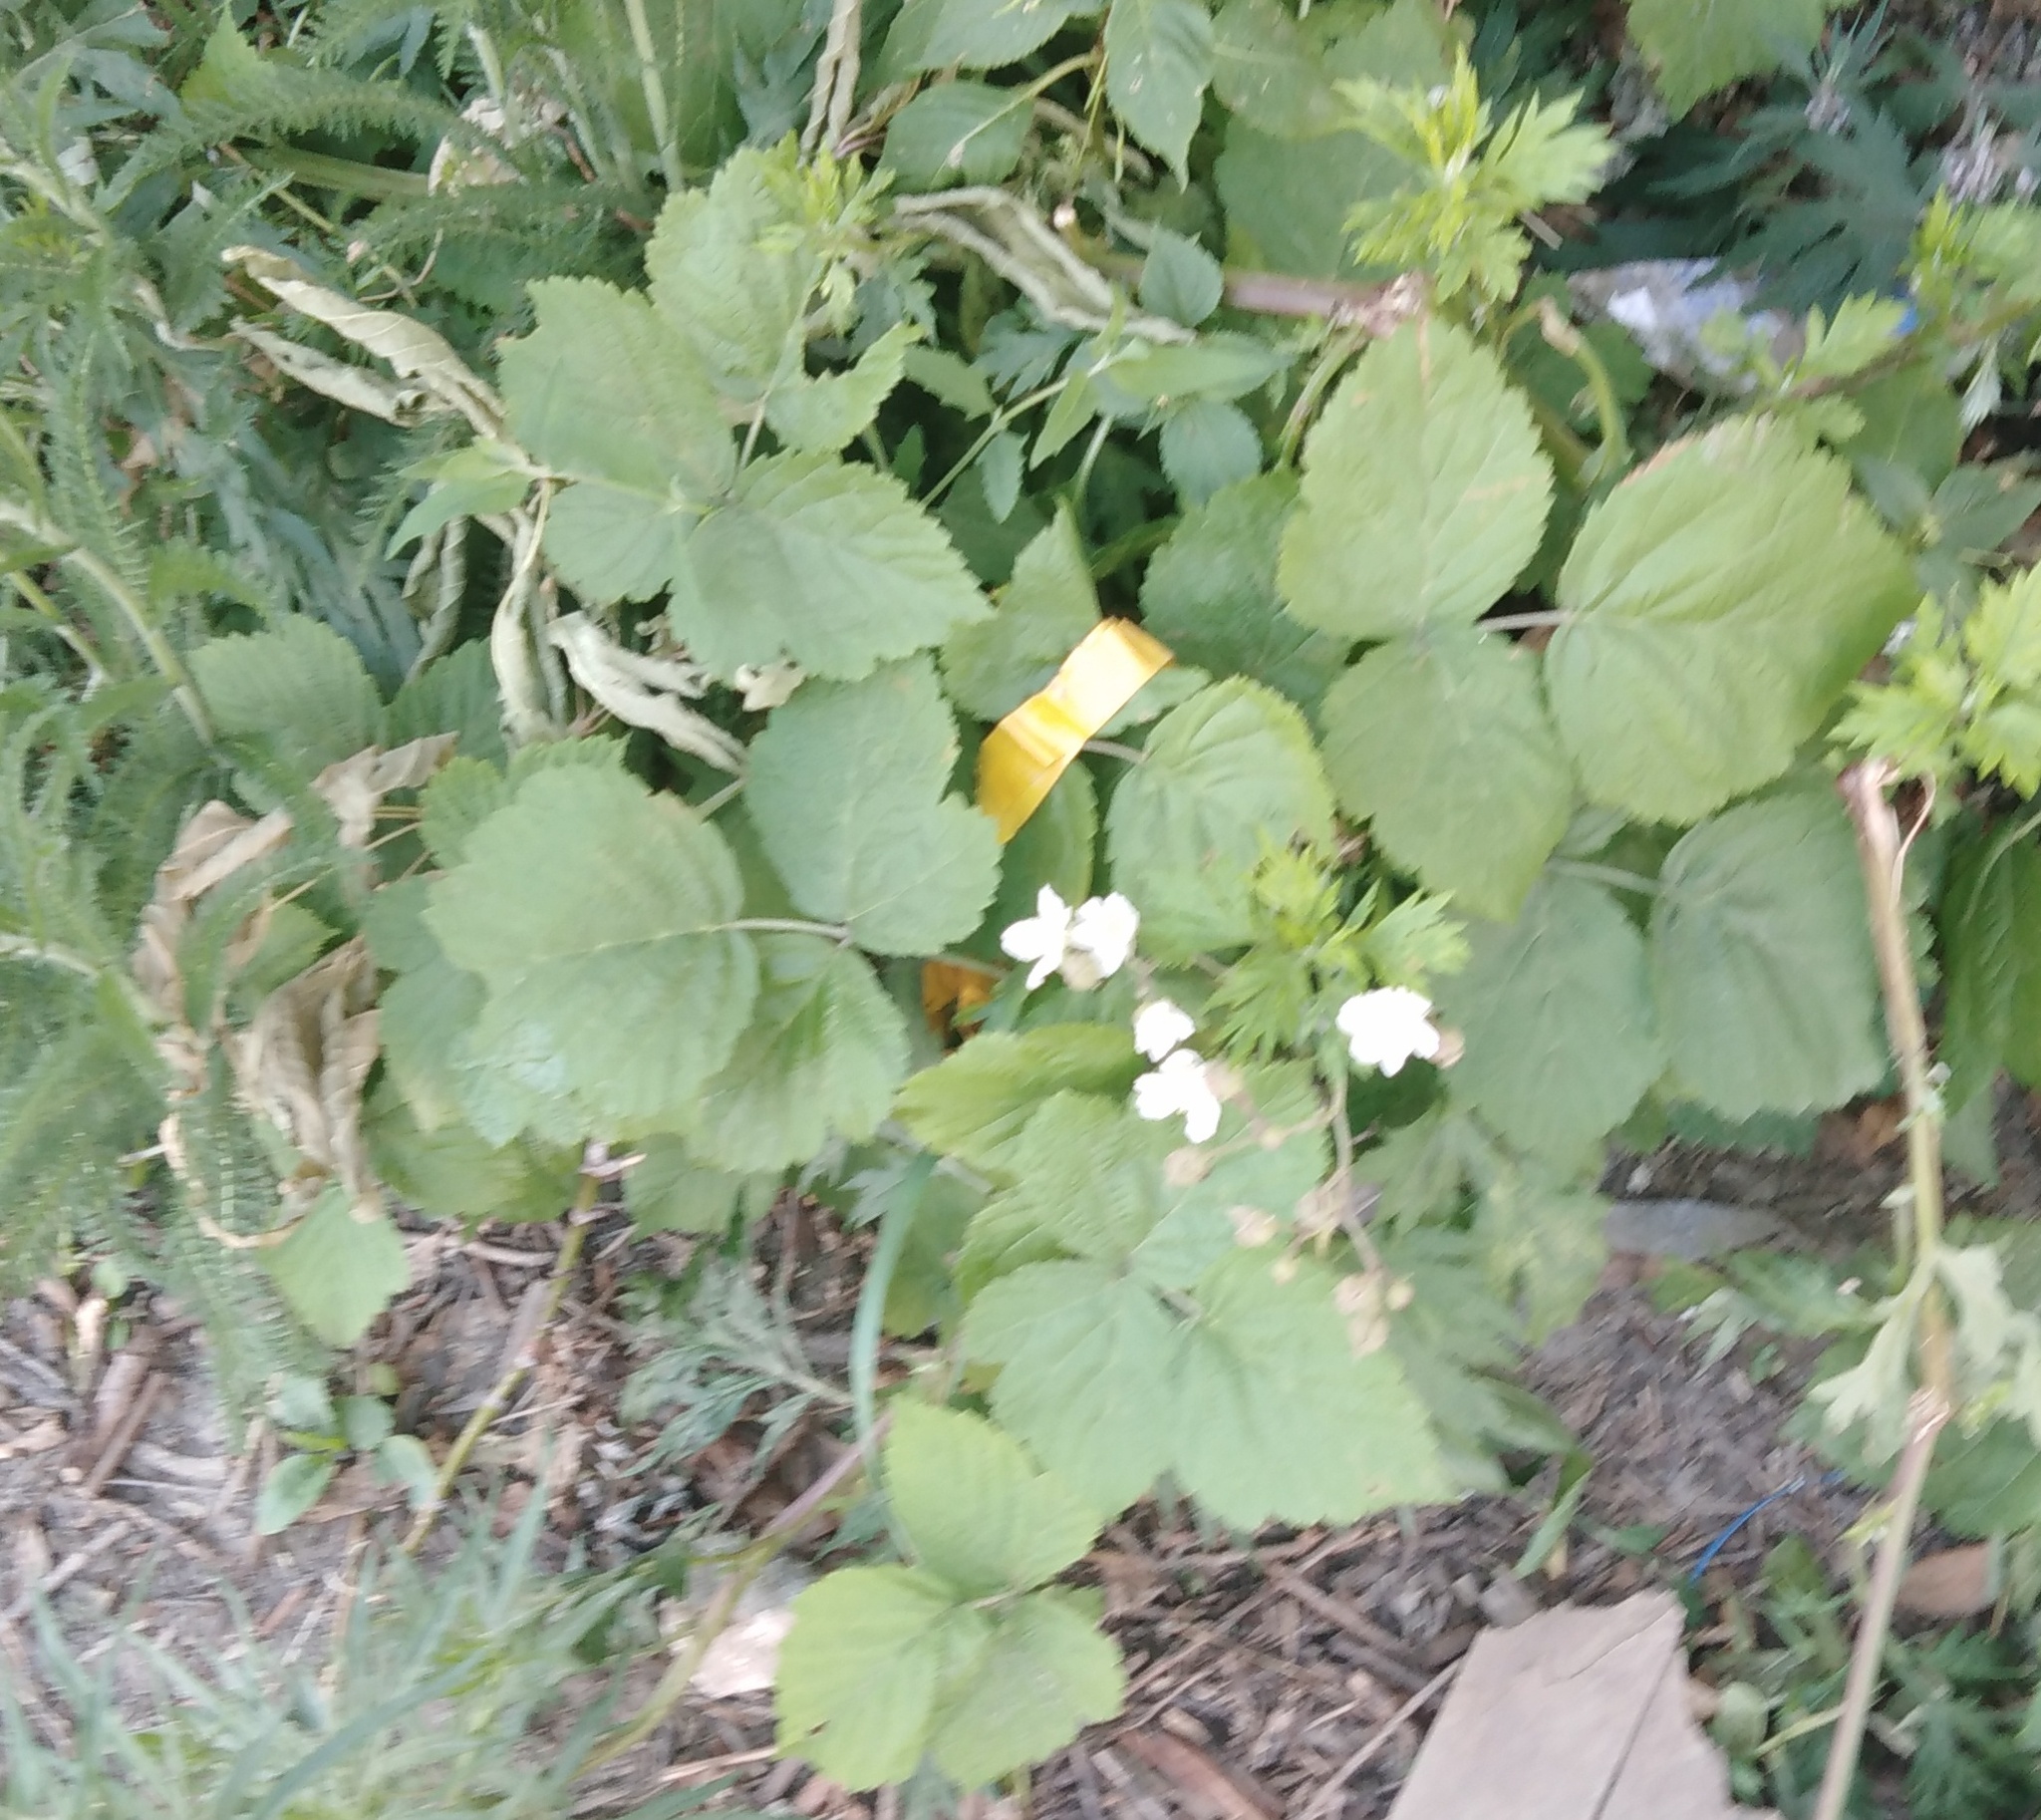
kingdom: Plantae
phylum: Tracheophyta
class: Magnoliopsida
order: Rosales
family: Rosaceae
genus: Rubus
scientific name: Rubus caesius
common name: Dewberry
